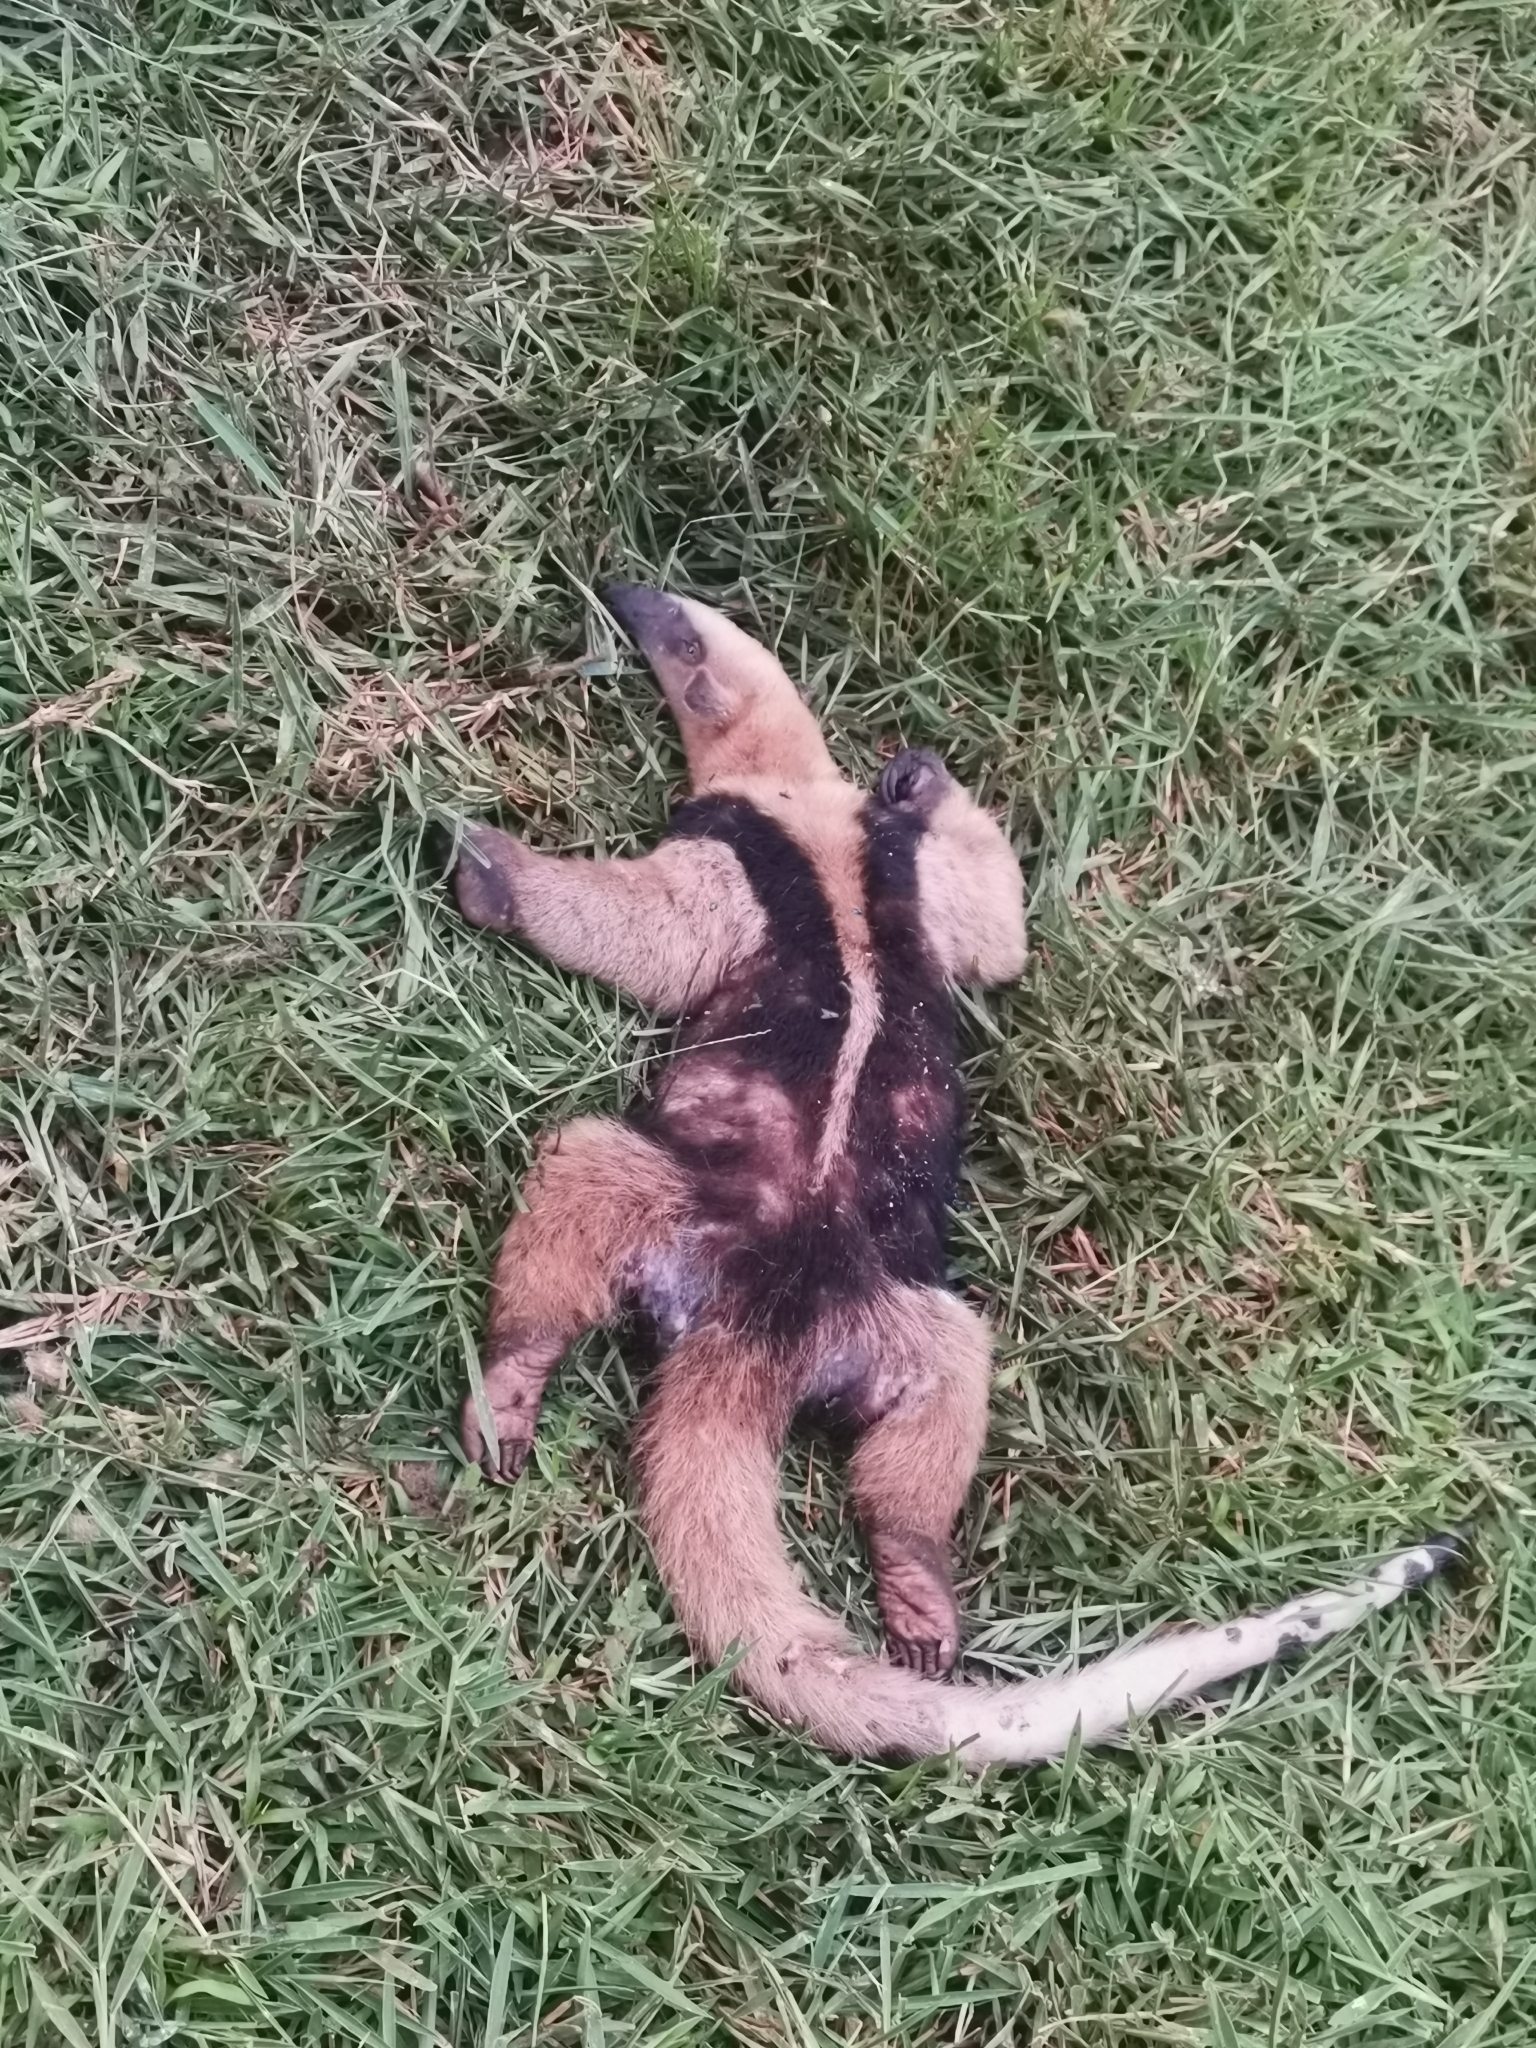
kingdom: Animalia
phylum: Chordata
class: Mammalia
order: Pilosa
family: Myrmecophagidae
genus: Tamandua
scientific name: Tamandua mexicana
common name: Northern tamandua
